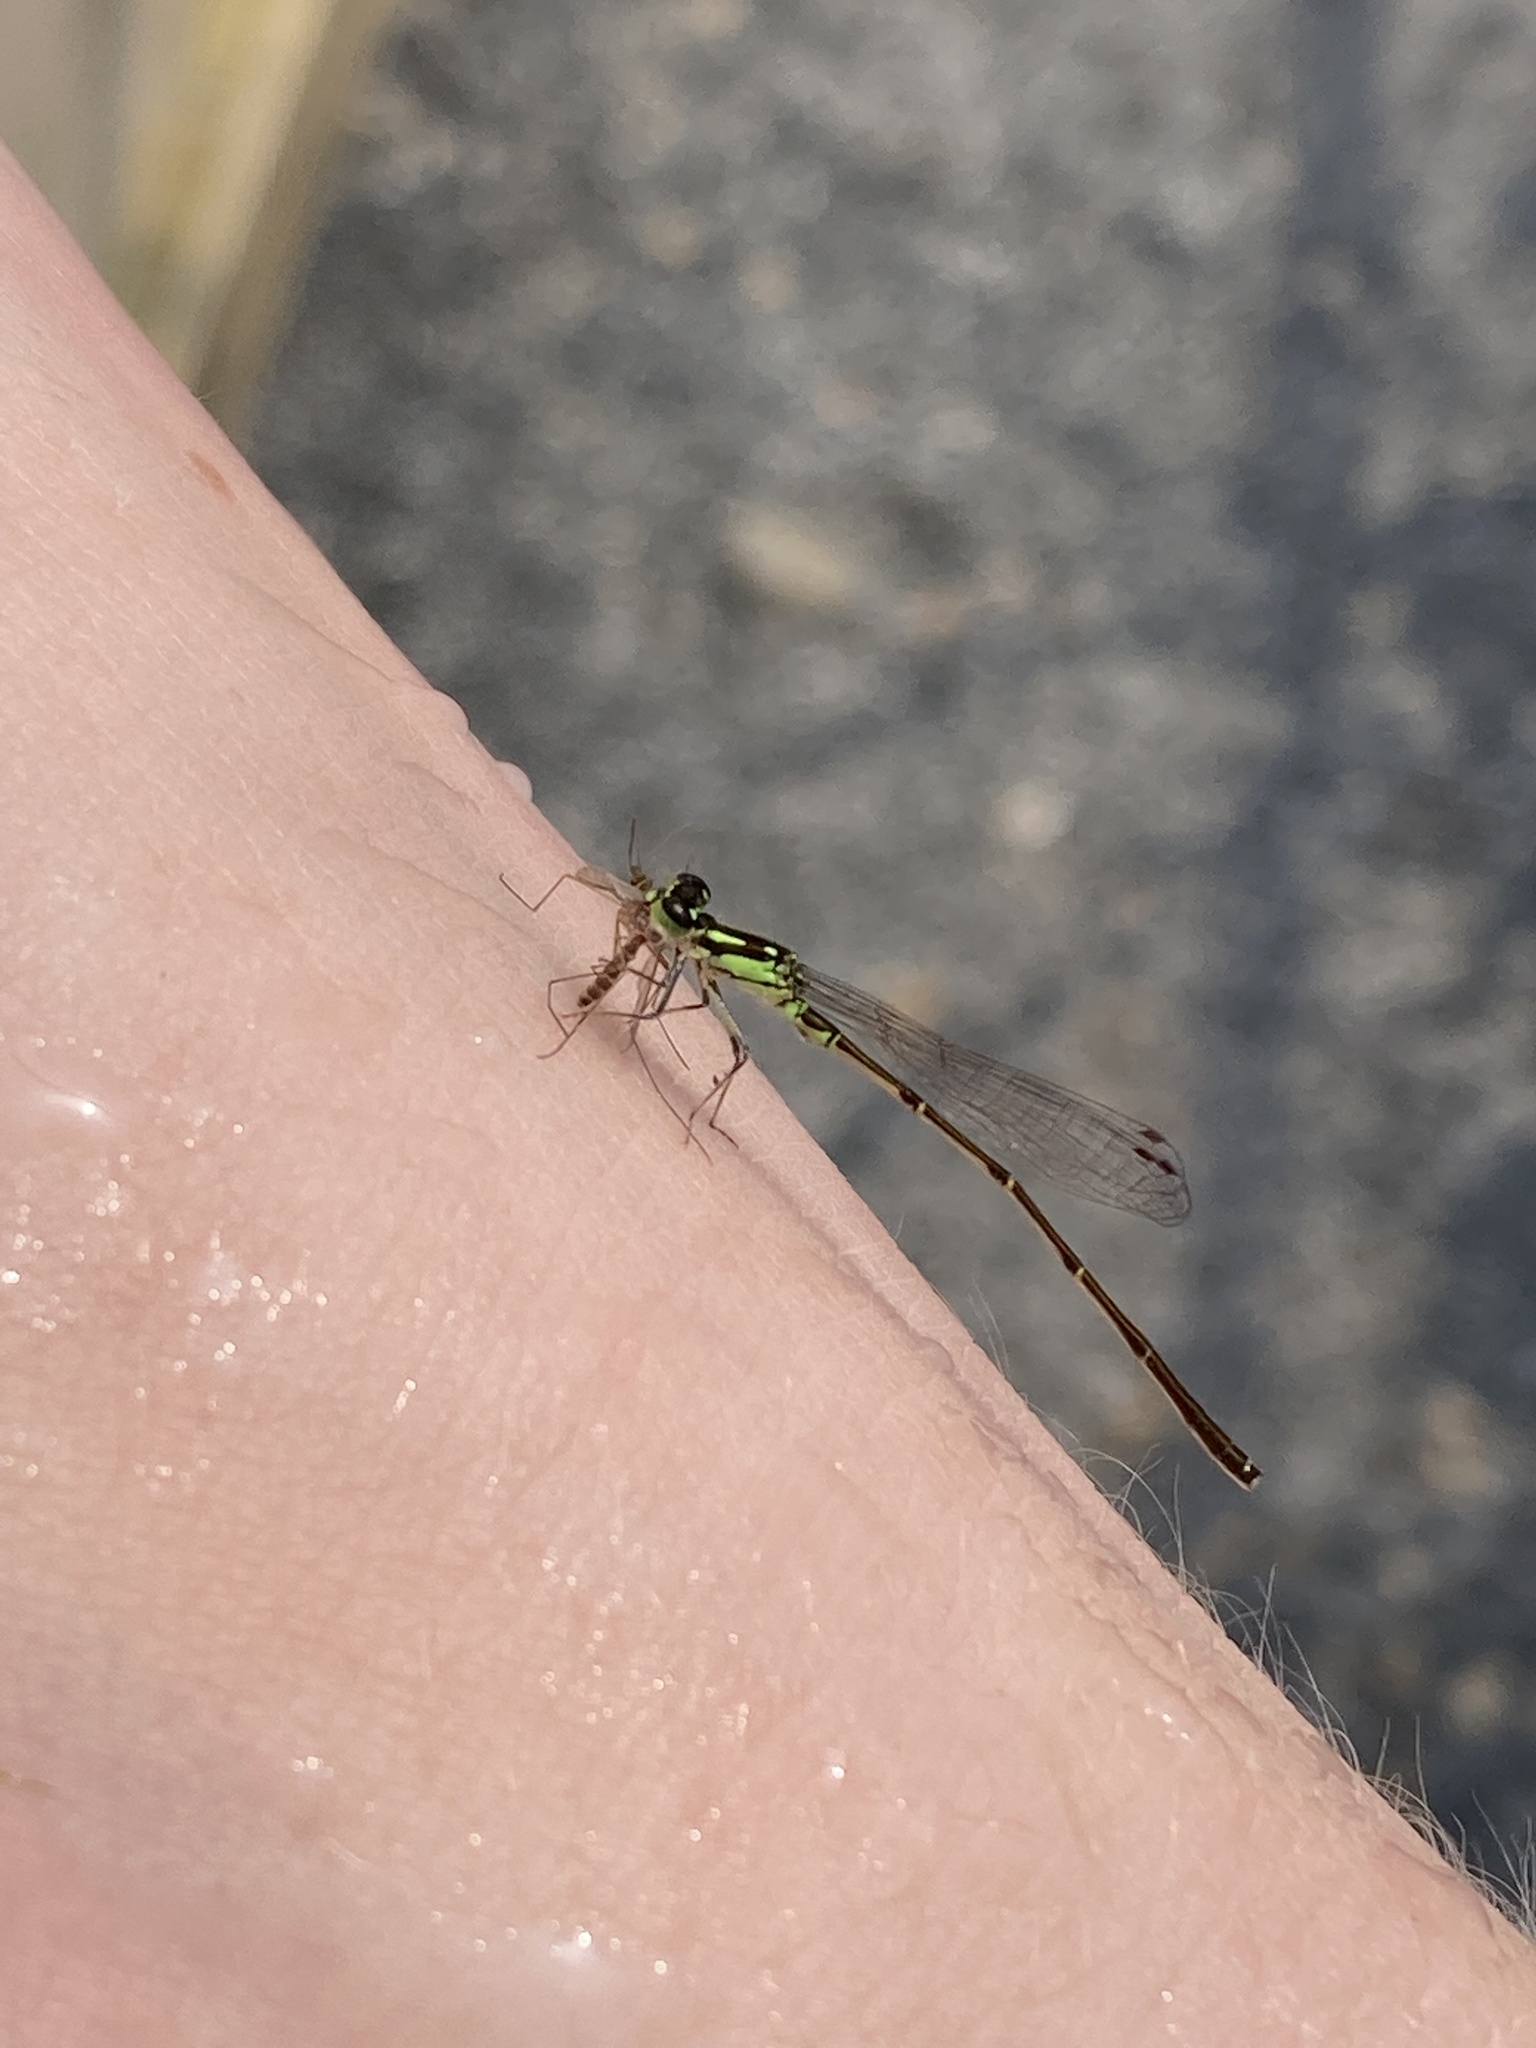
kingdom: Animalia
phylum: Arthropoda
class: Insecta
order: Odonata
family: Coenagrionidae
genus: Ischnura
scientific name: Ischnura posita
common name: Fragile forktail
